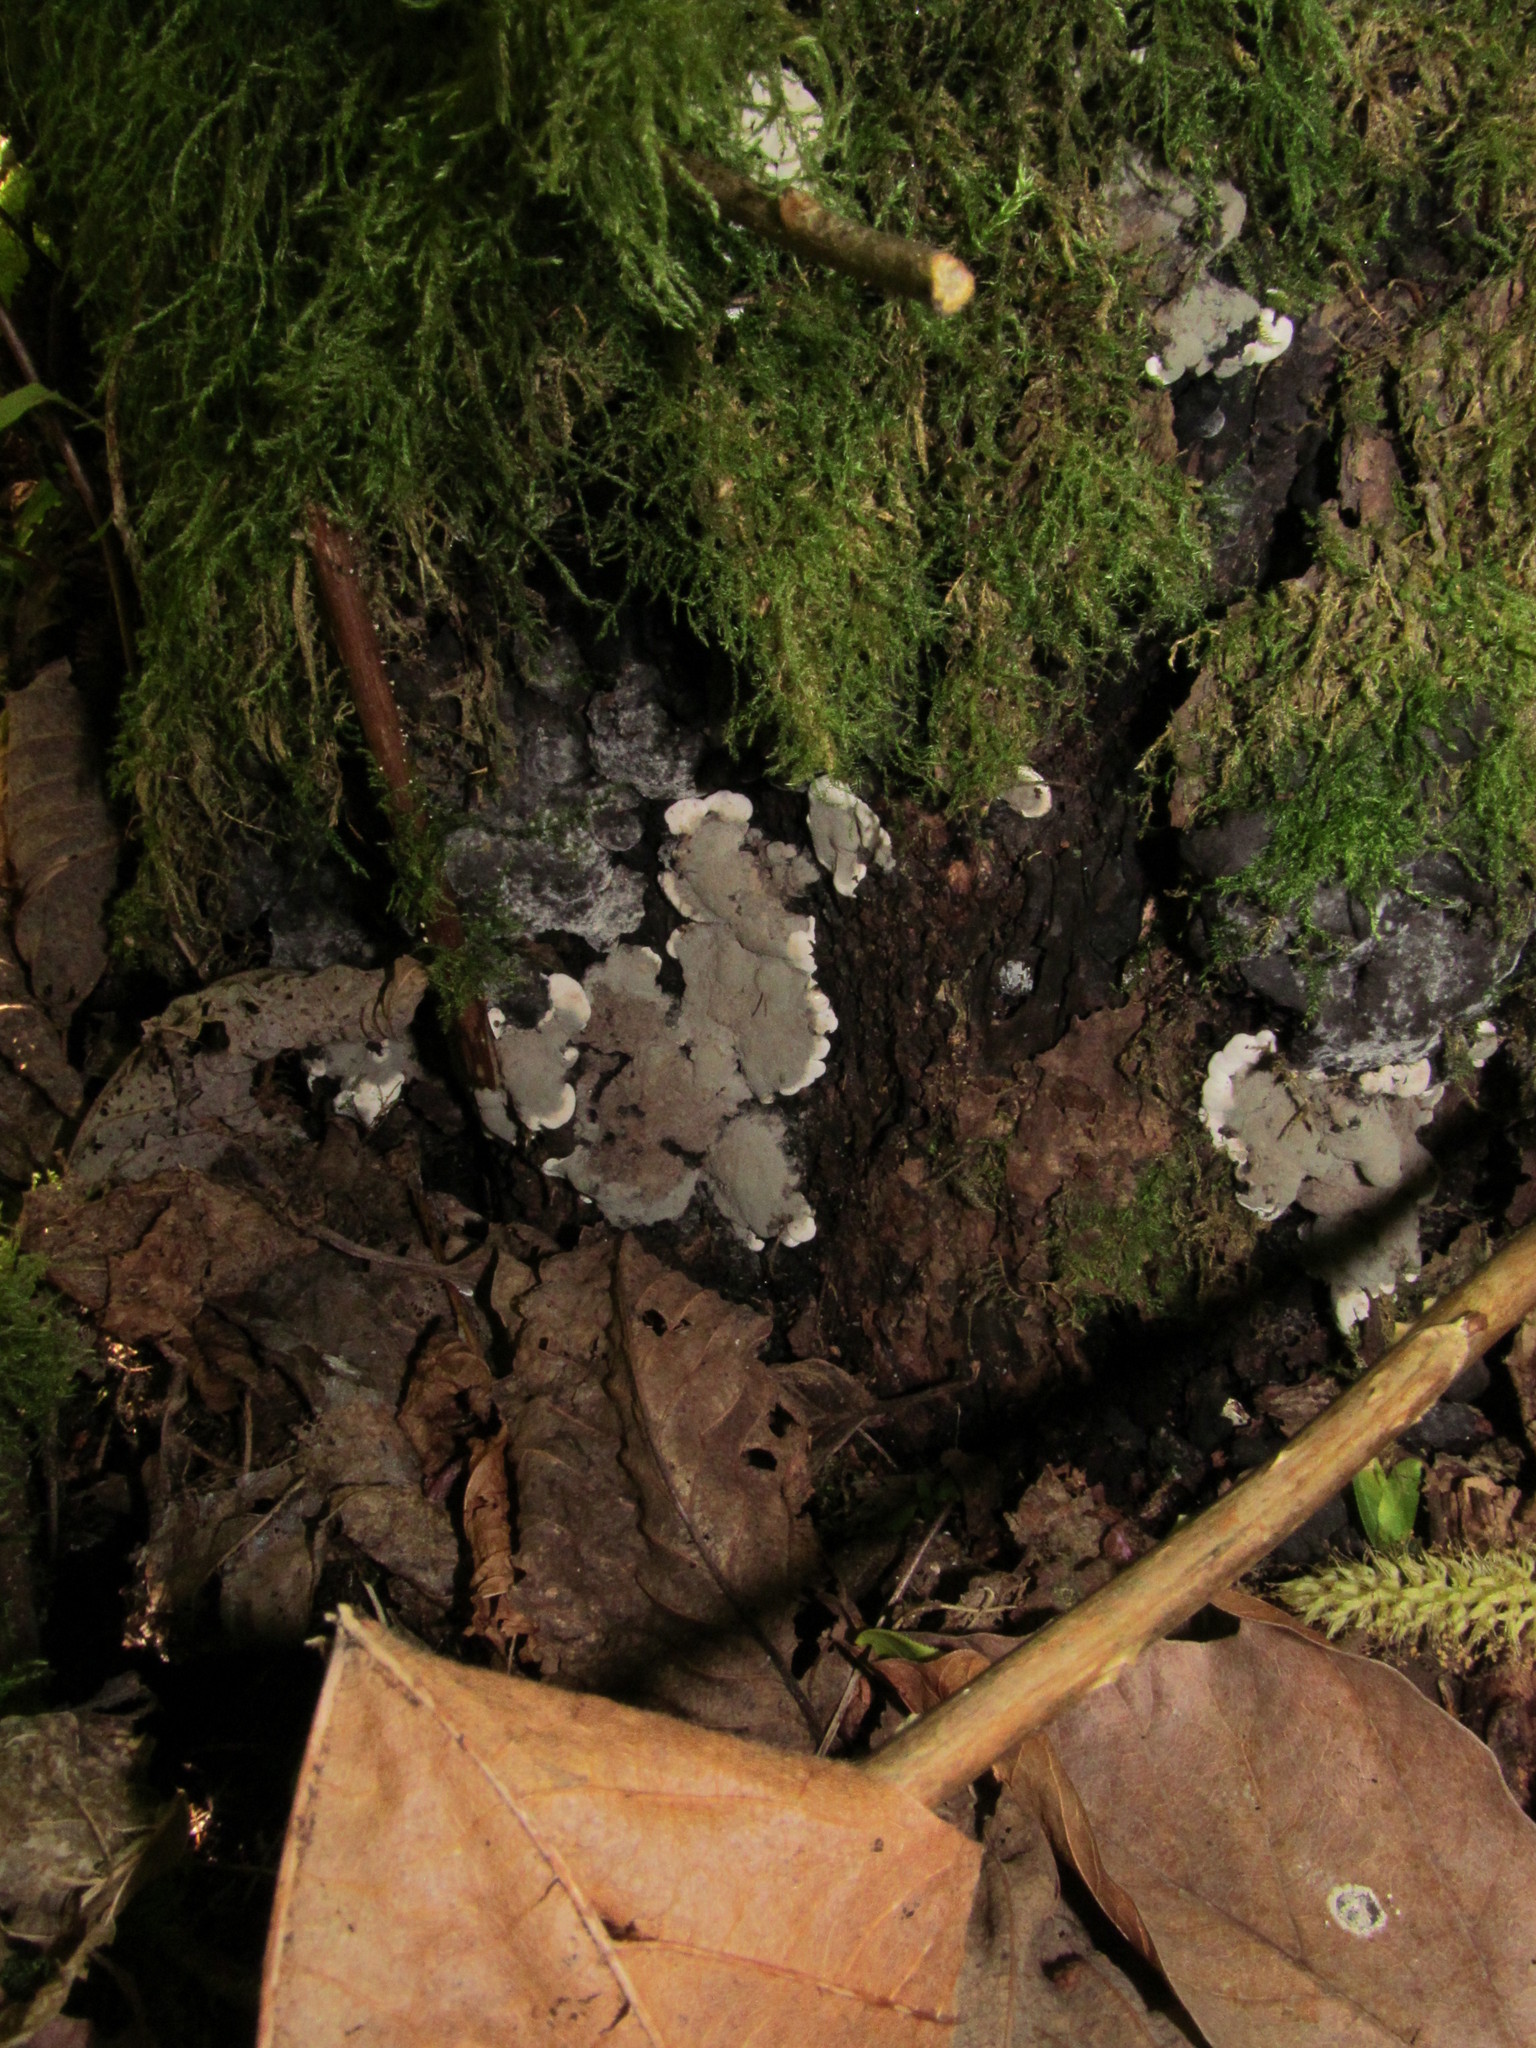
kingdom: Fungi
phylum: Ascomycota
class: Sordariomycetes
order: Xylariales
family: Xylariaceae
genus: Kretzschmaria
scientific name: Kretzschmaria deusta
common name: Brittle cinder
